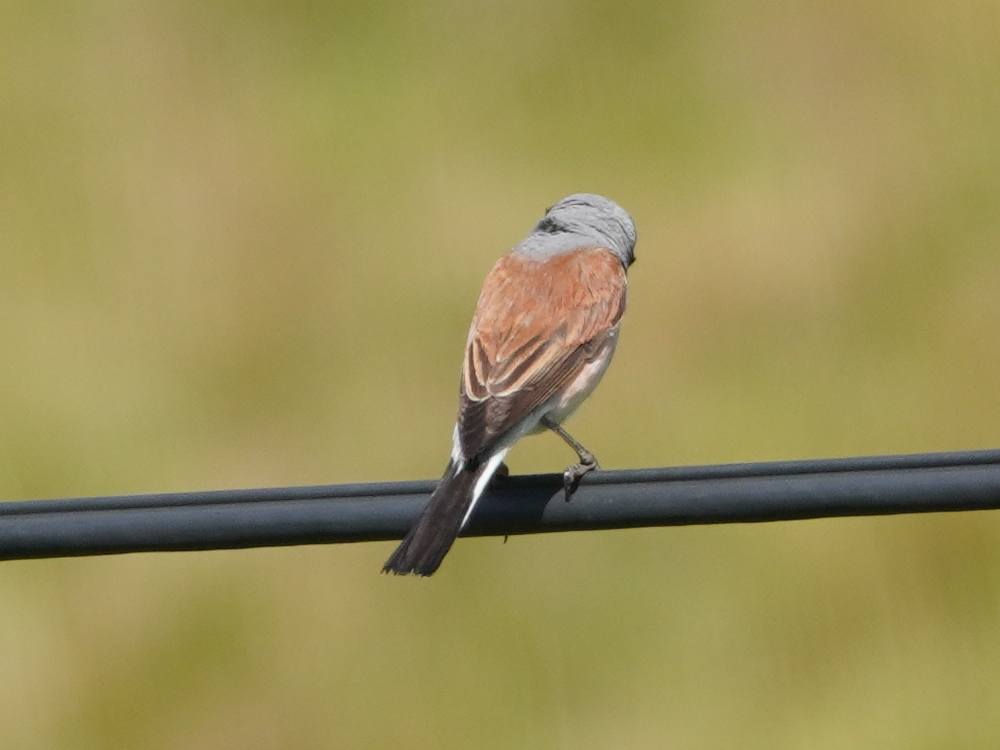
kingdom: Animalia
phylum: Chordata
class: Aves
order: Passeriformes
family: Laniidae
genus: Lanius
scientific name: Lanius collurio
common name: Red-backed shrike
